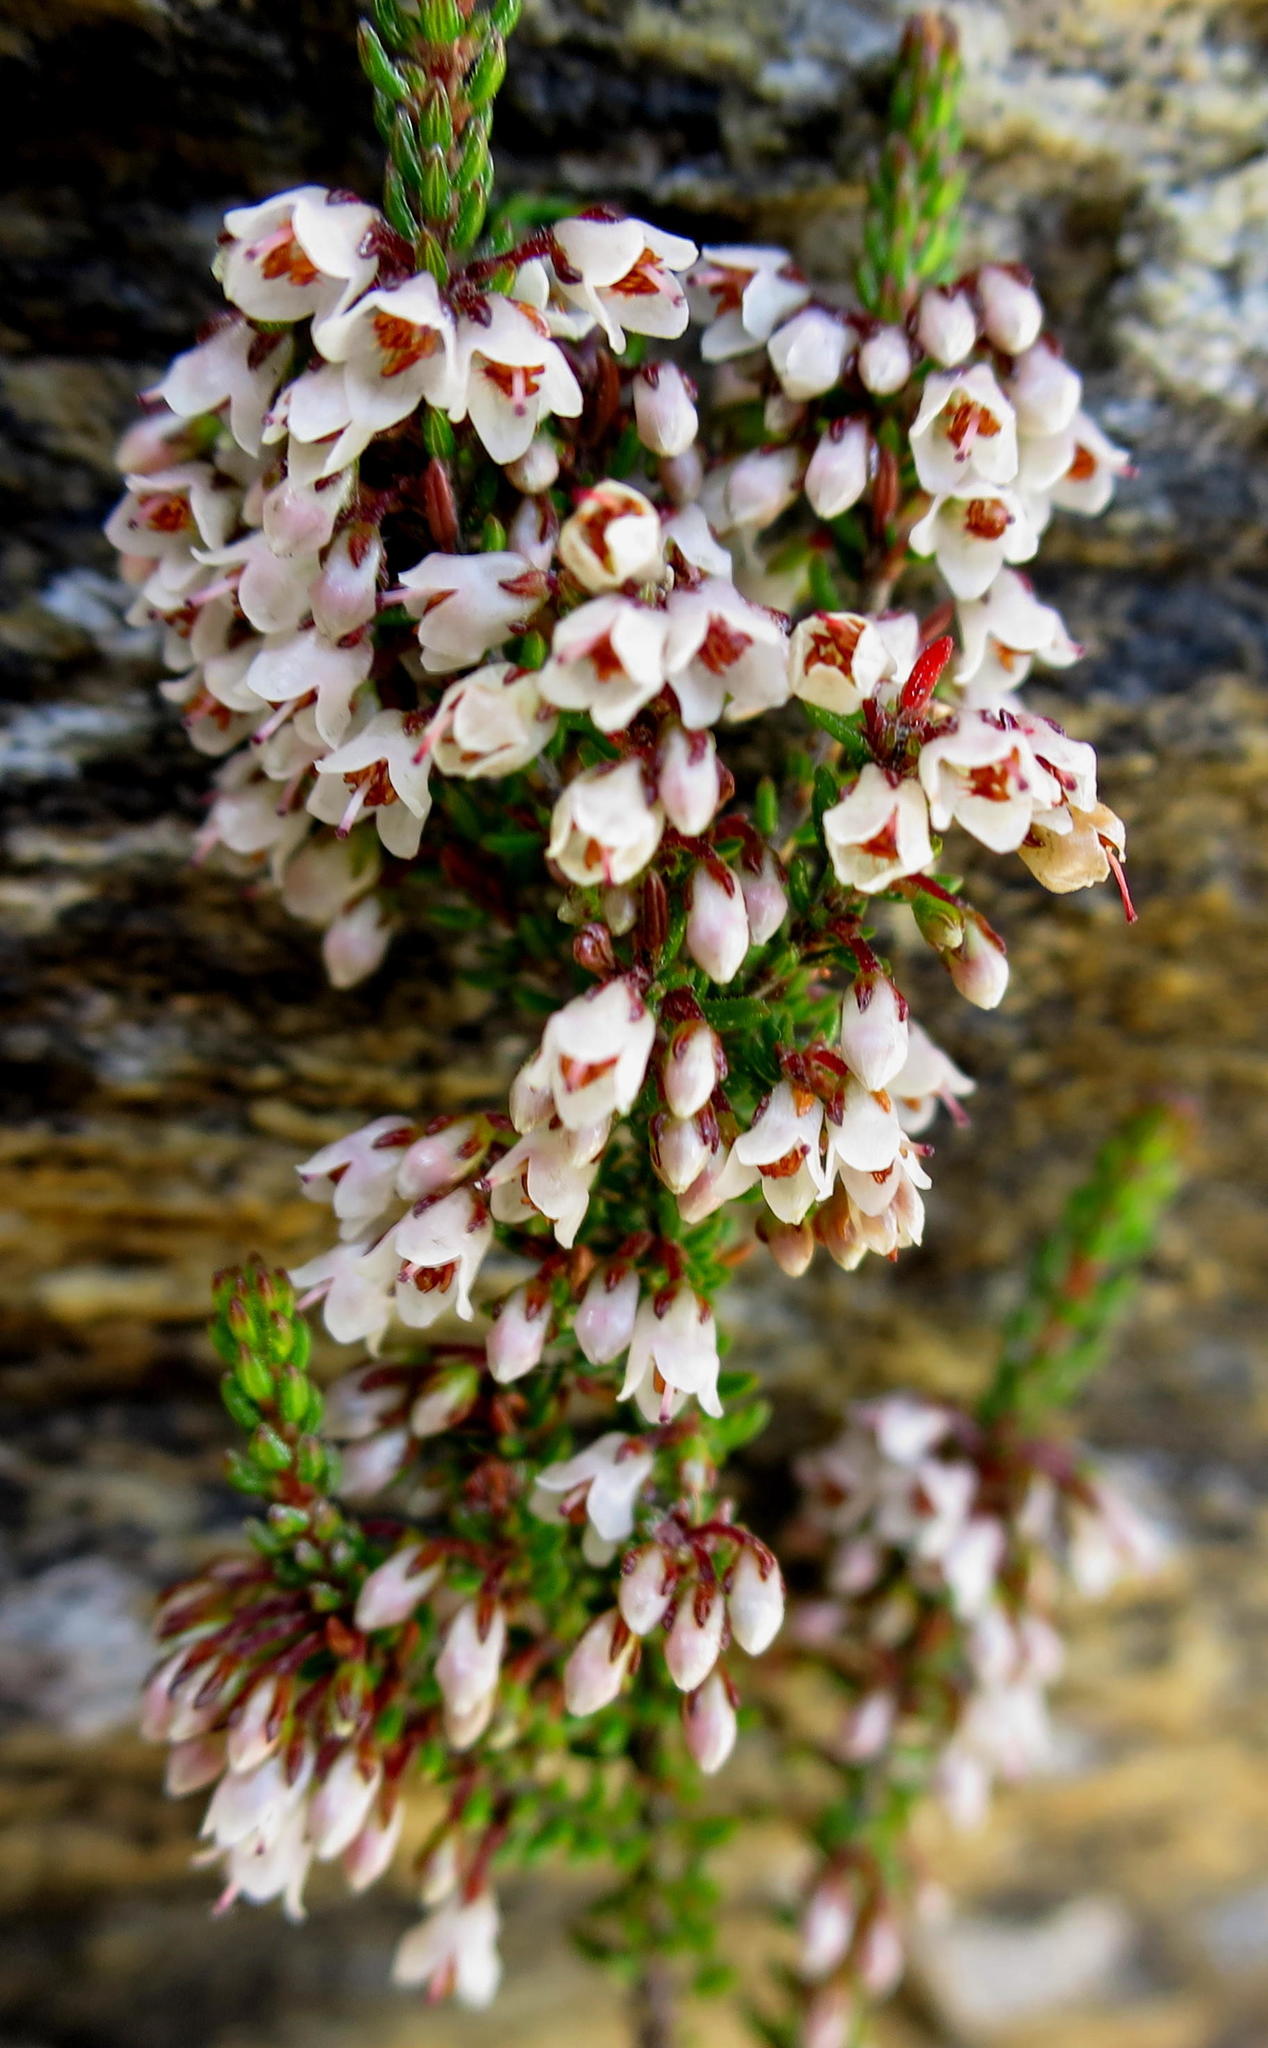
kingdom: Plantae
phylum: Tracheophyta
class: Magnoliopsida
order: Ericales
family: Ericaceae
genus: Erica
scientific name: Erica tenuis
